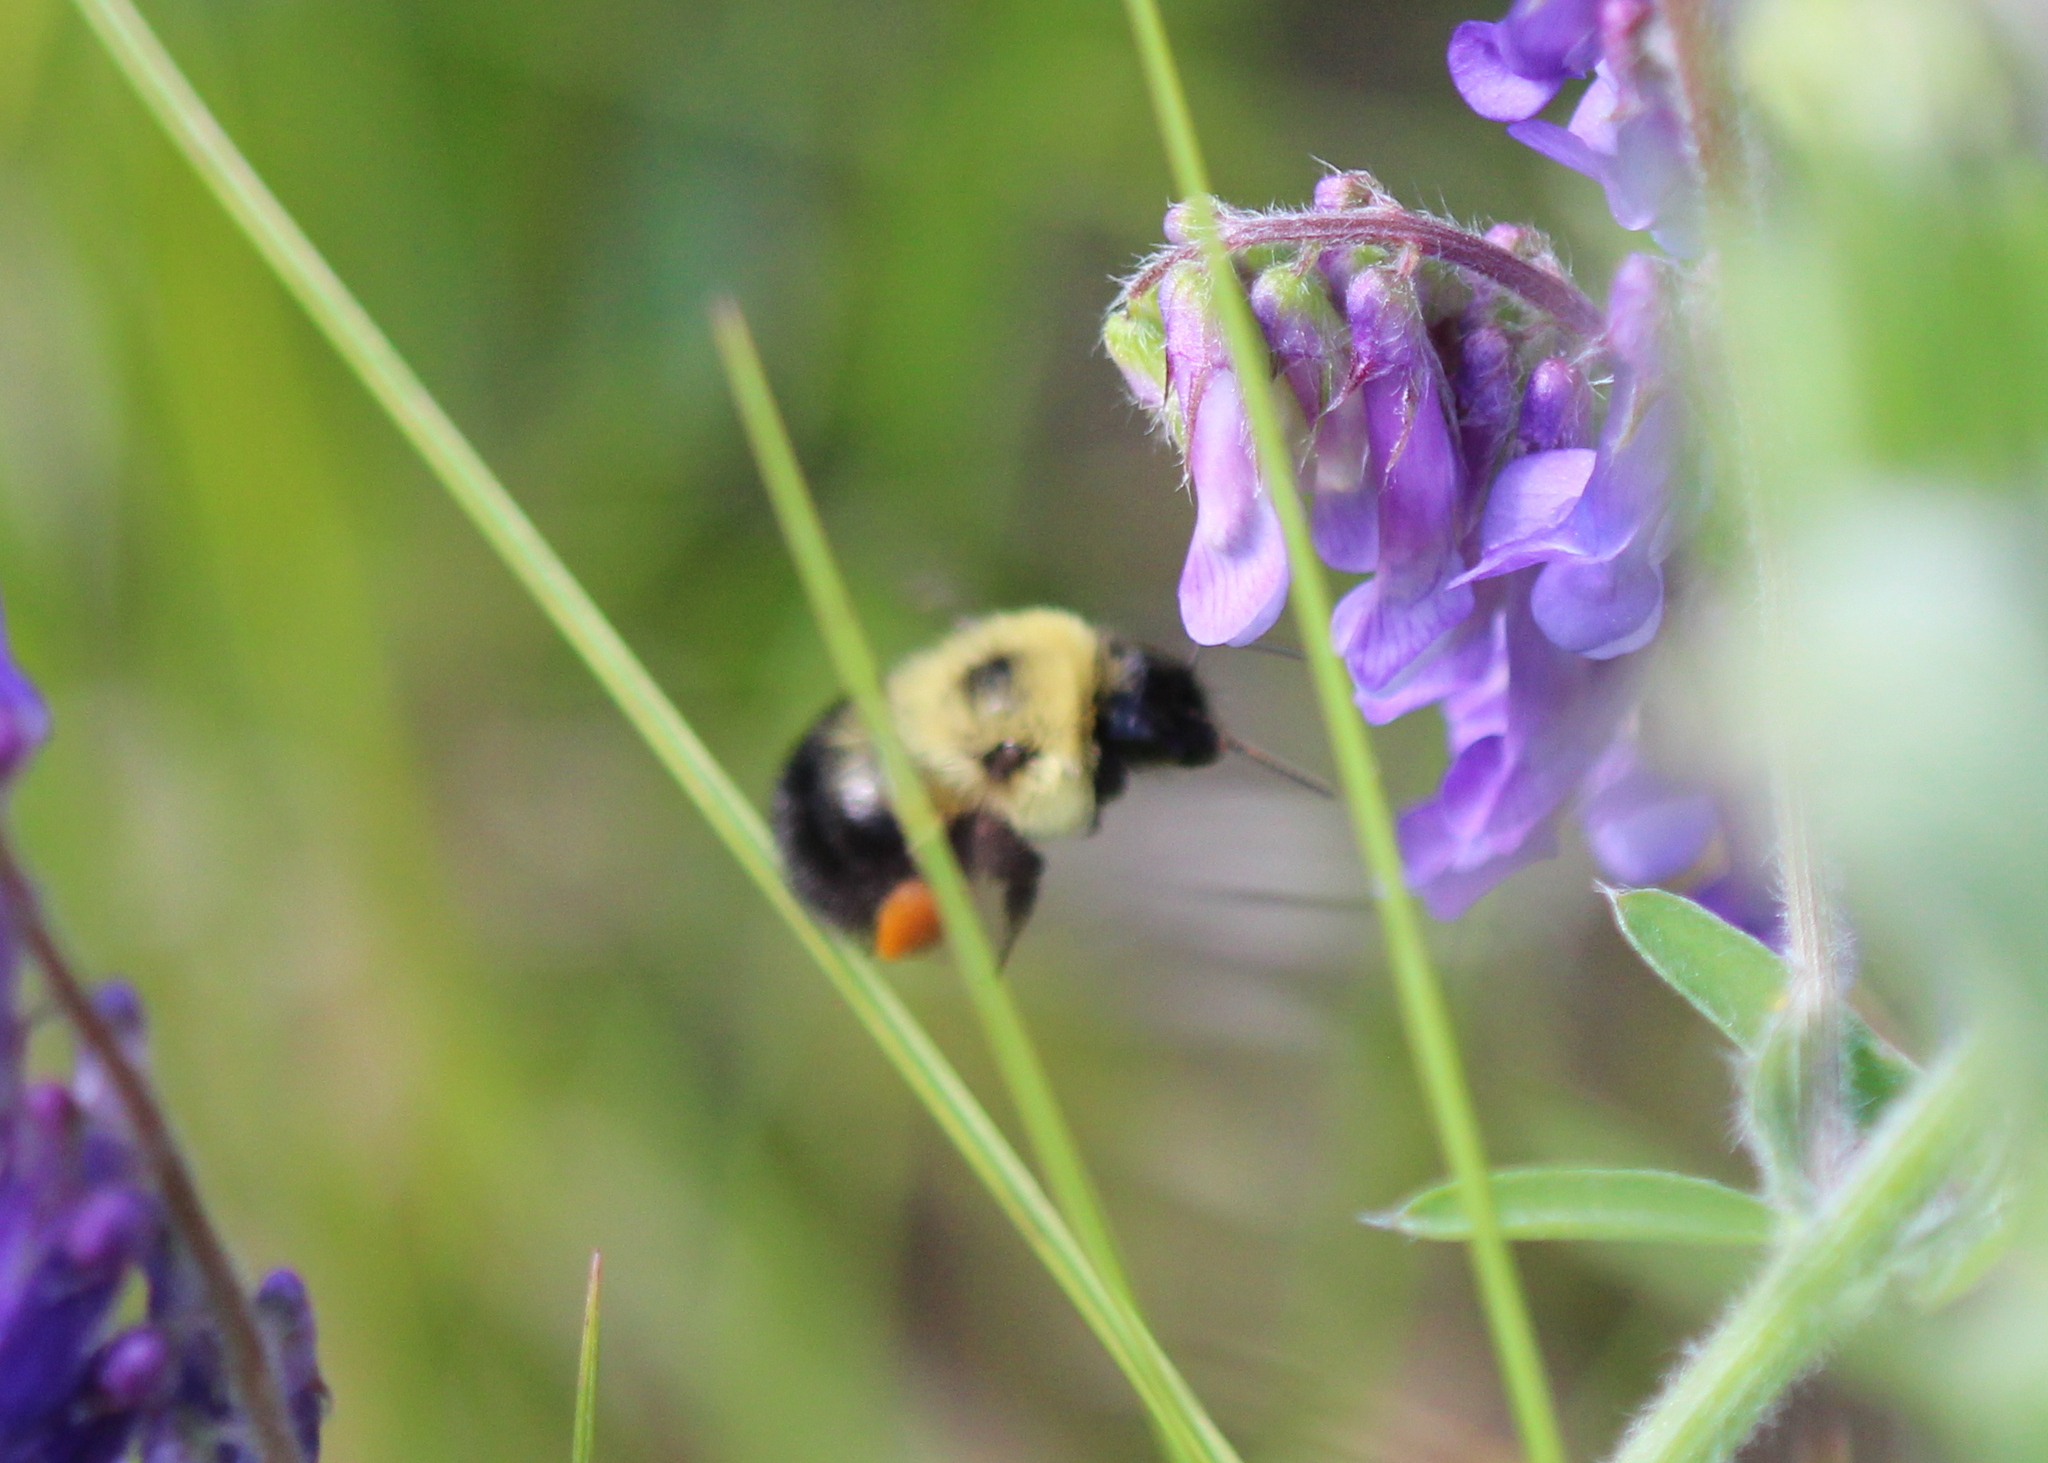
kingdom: Animalia
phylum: Arthropoda
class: Insecta
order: Hymenoptera
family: Apidae
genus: Bombus
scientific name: Bombus bimaculatus
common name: Two-spotted bumble bee
